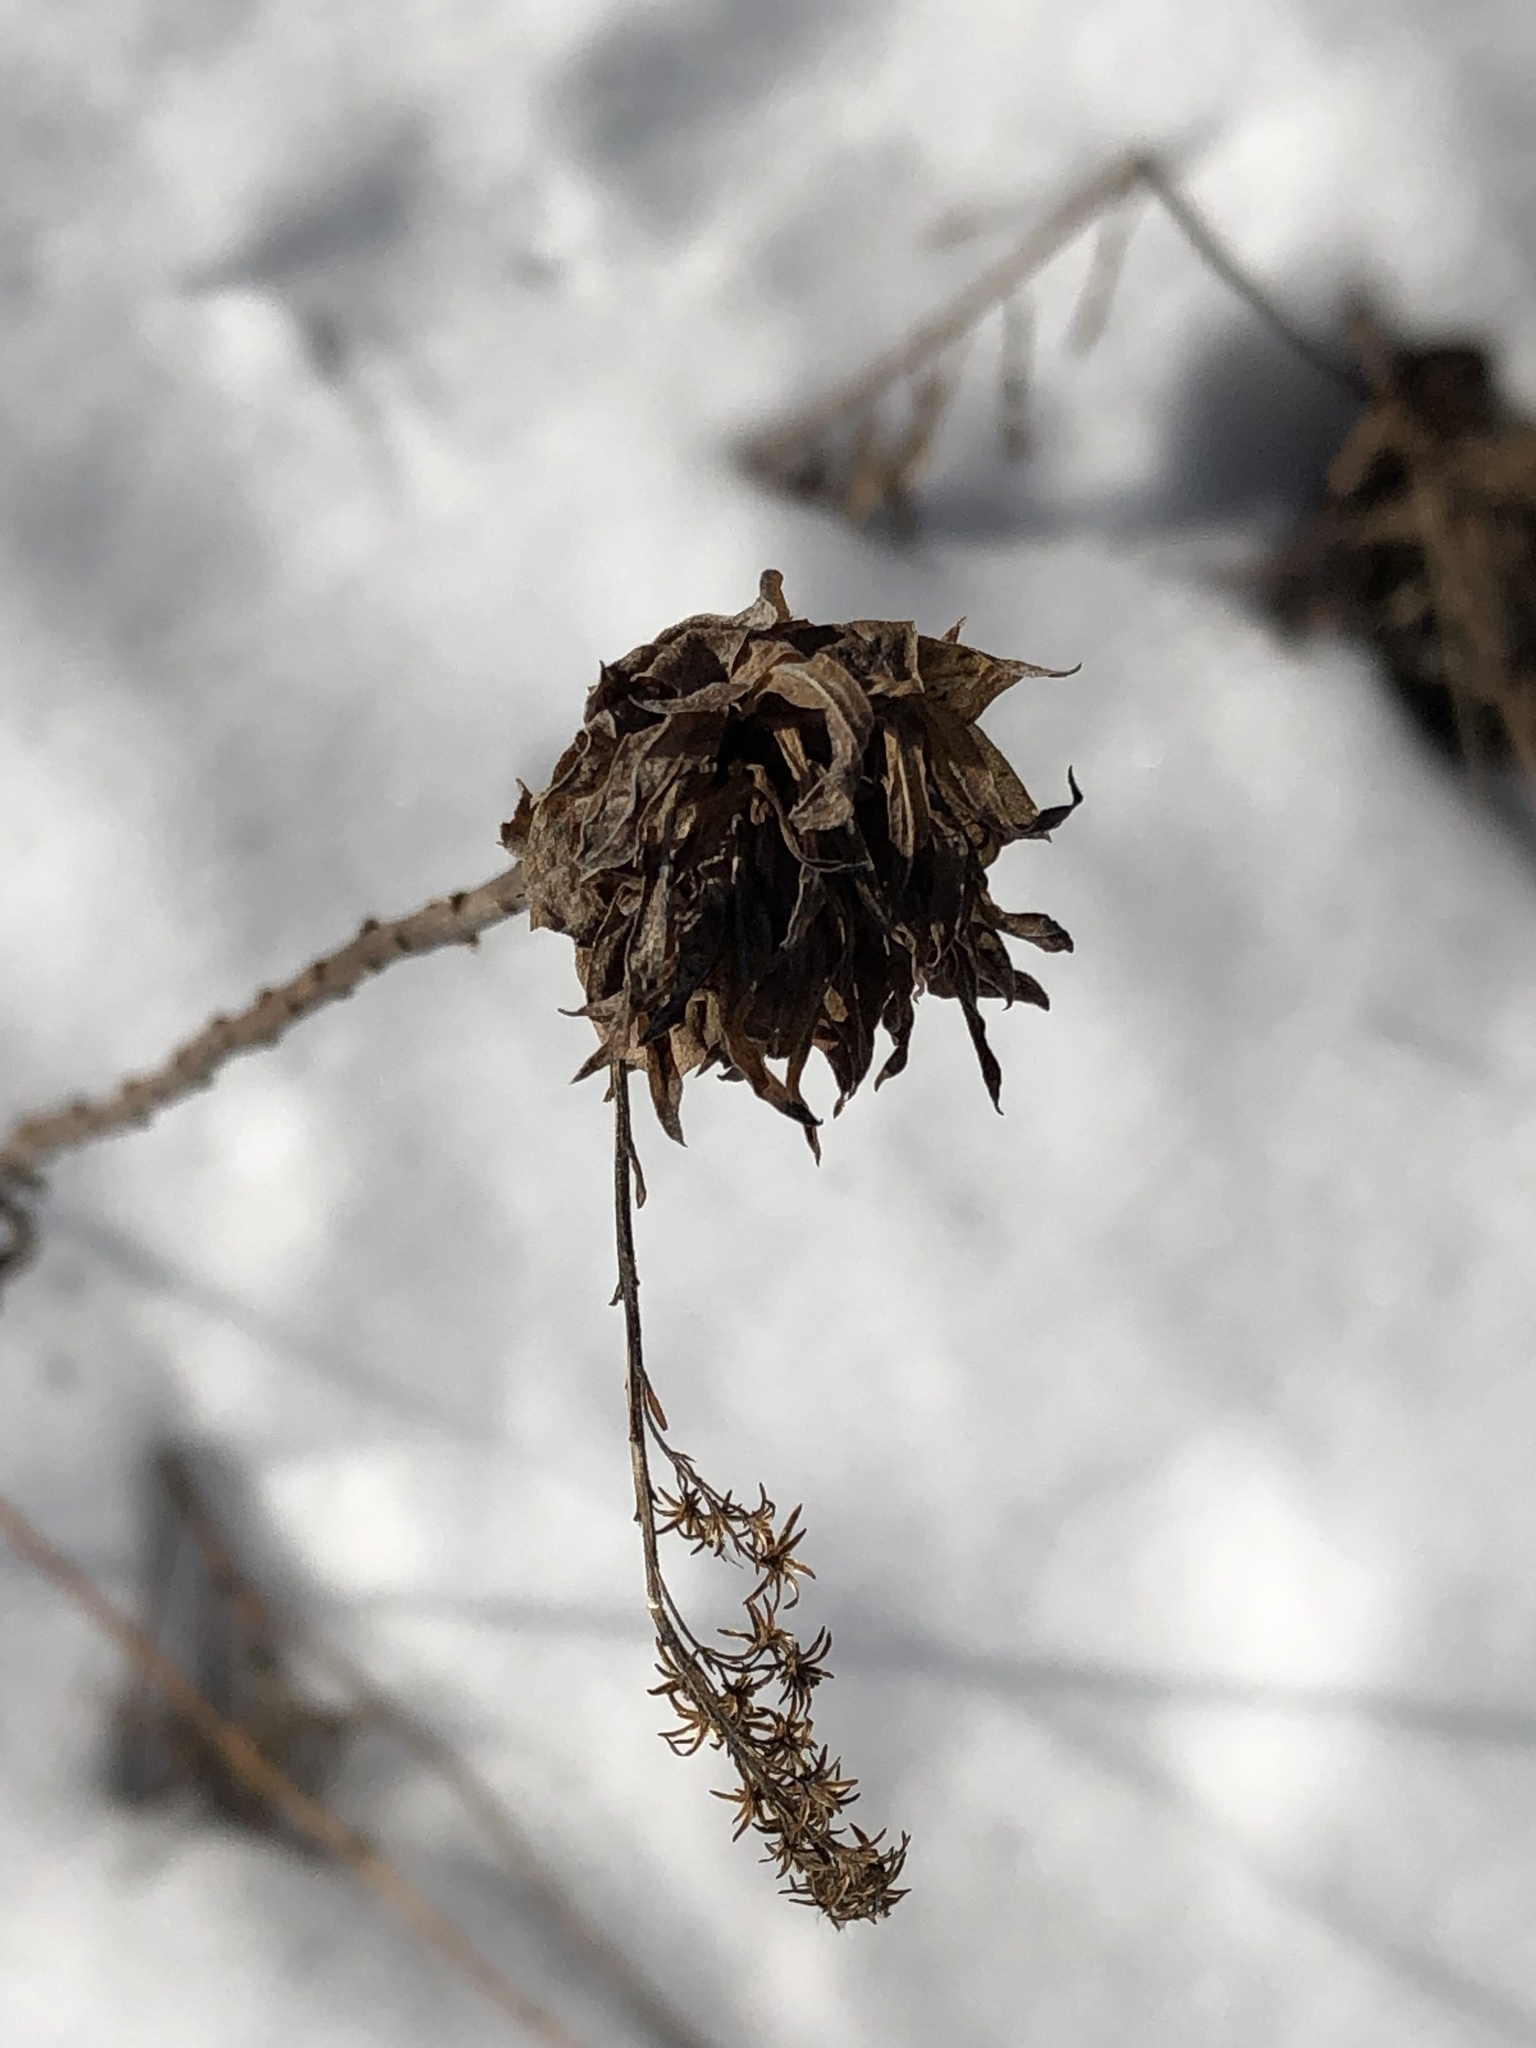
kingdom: Animalia
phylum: Arthropoda
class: Insecta
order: Diptera
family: Cecidomyiidae
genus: Rhopalomyia
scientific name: Rhopalomyia solidaginis
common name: Goldenrod bunch gall midge
